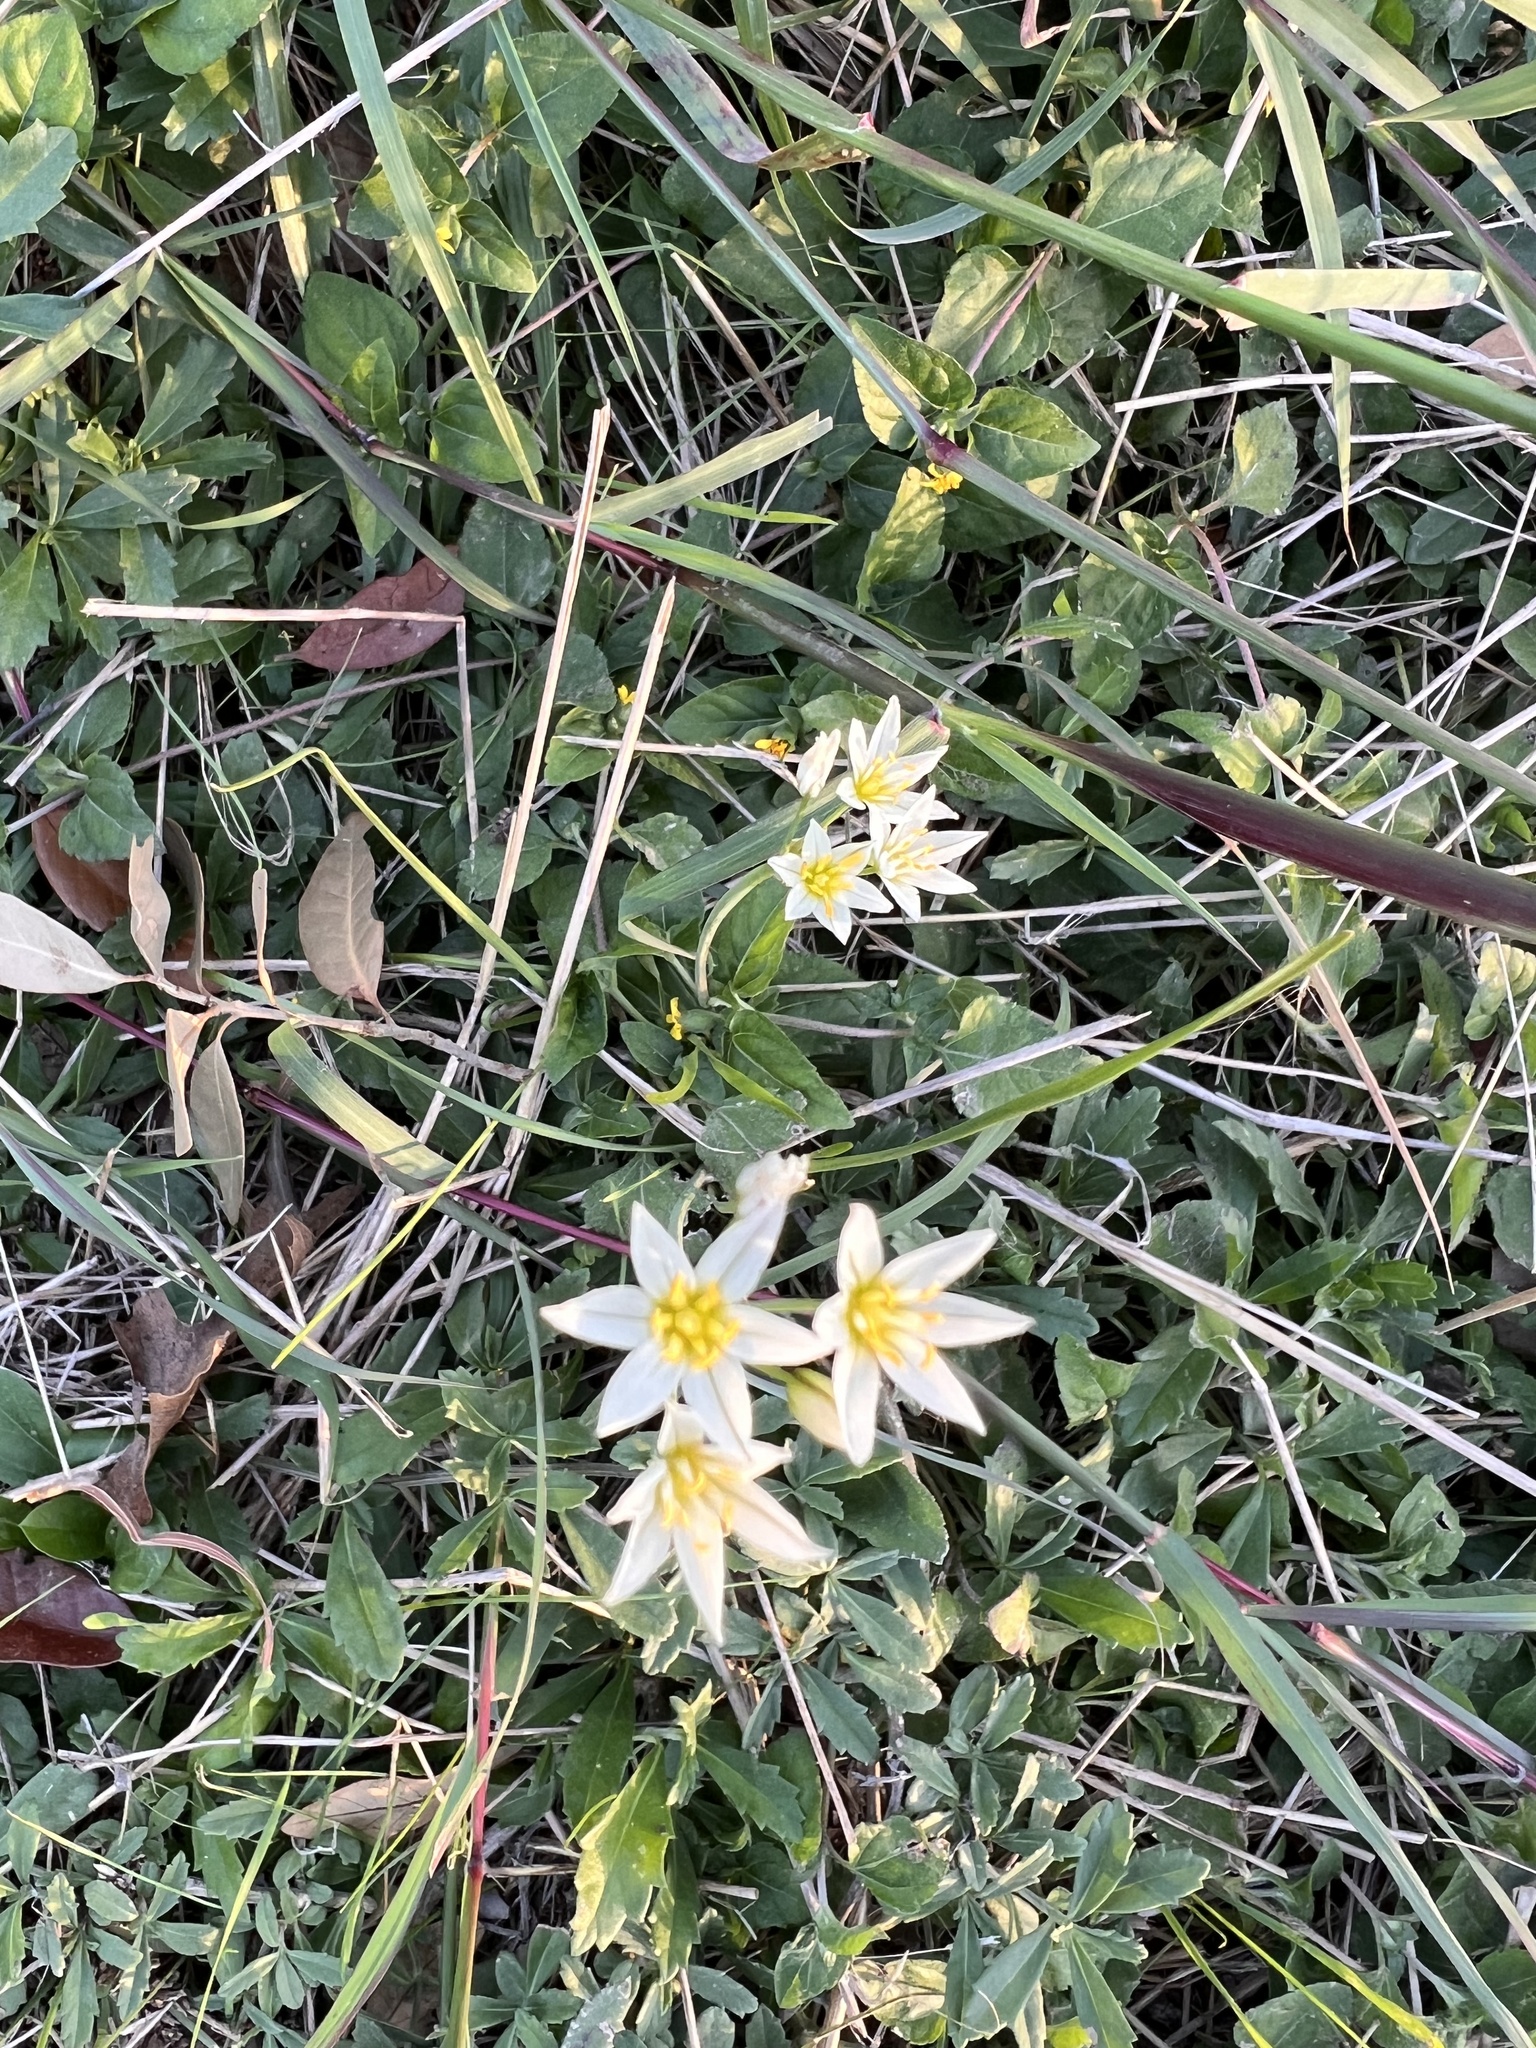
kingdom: Plantae
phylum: Tracheophyta
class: Liliopsida
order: Asparagales
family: Amaryllidaceae
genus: Nothoscordum
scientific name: Nothoscordum bivalve
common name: Crow-poison
